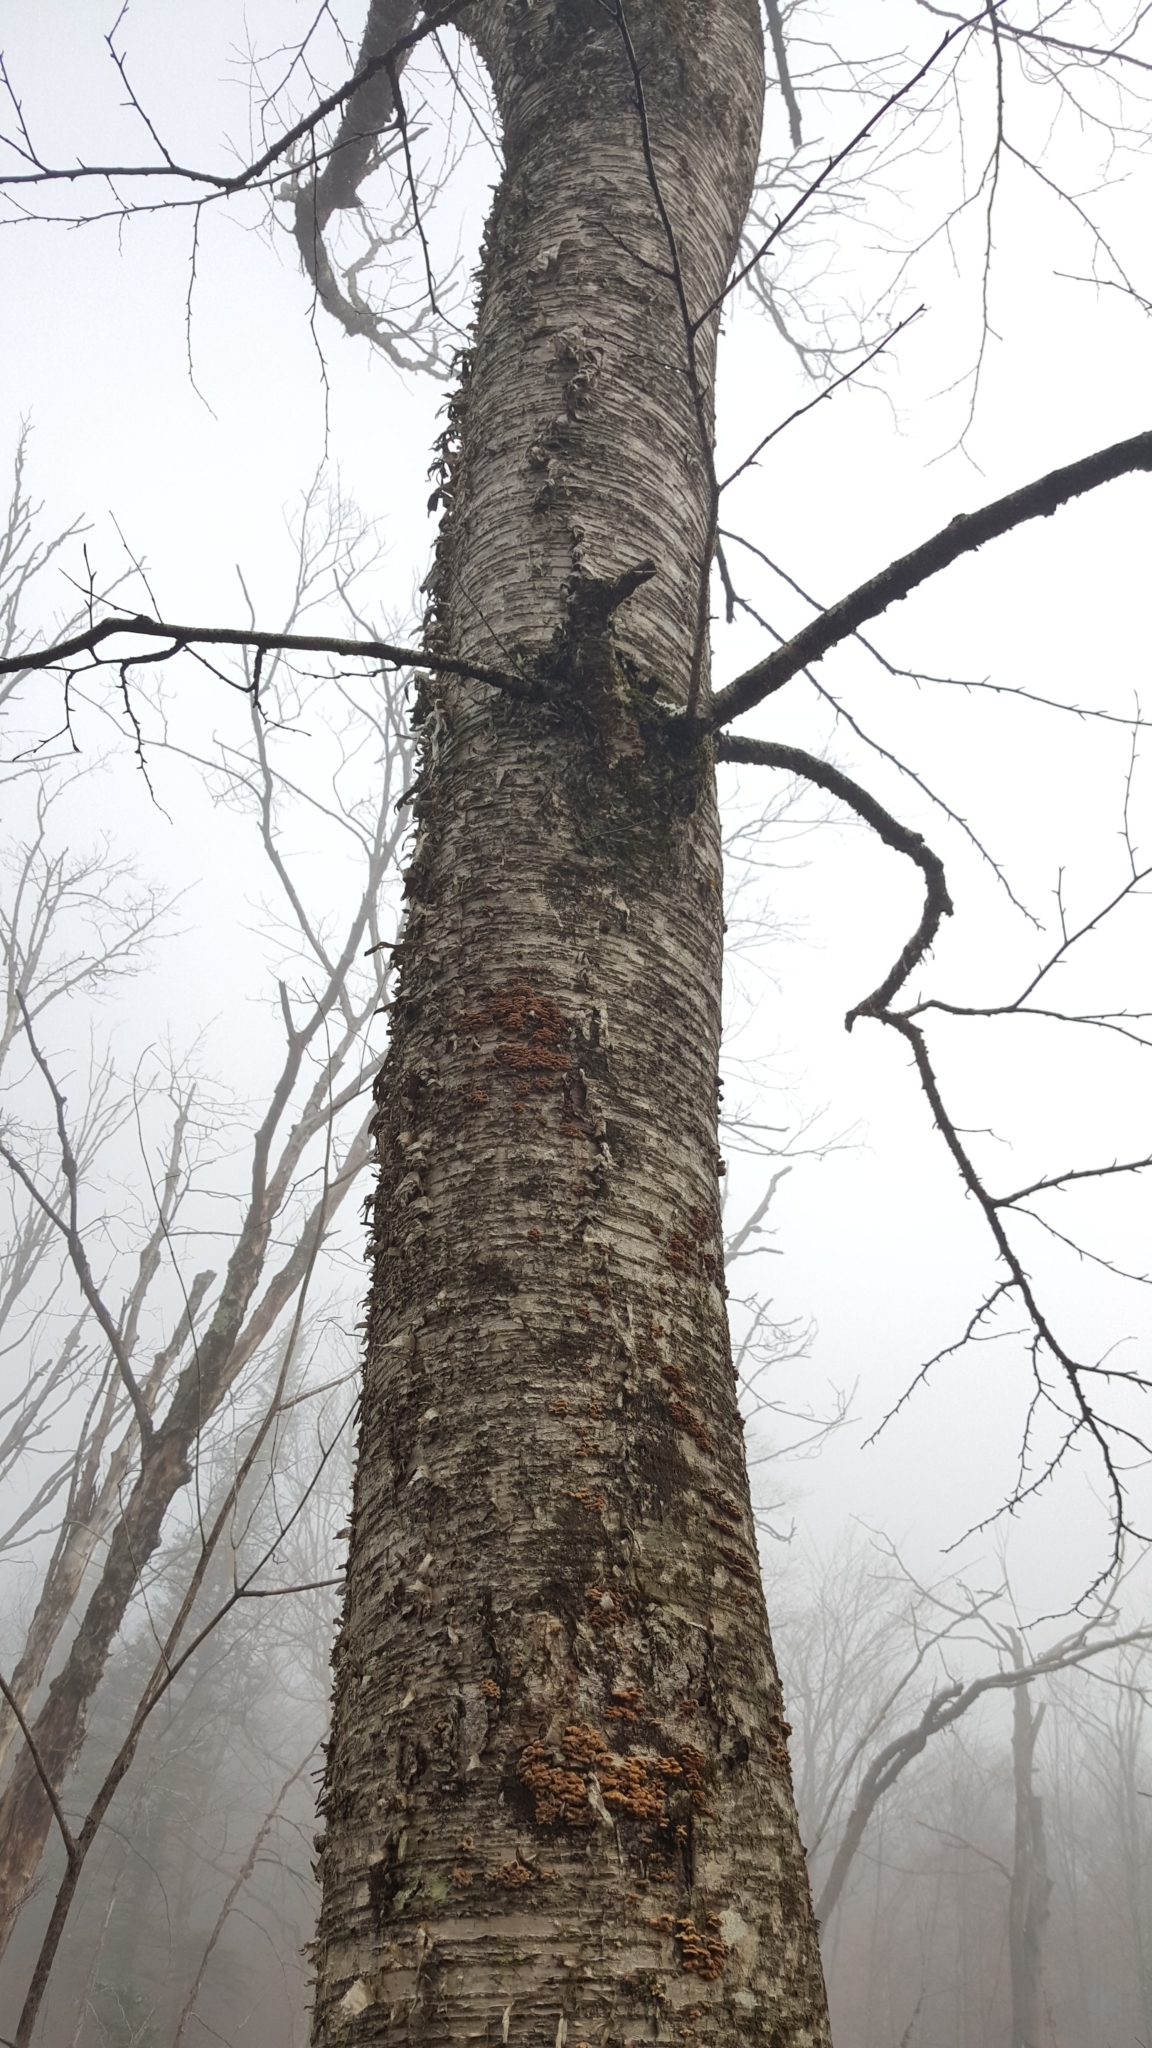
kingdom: Plantae
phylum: Tracheophyta
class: Magnoliopsida
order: Fagales
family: Betulaceae
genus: Betula
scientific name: Betula alleghaniensis
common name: Yellow birch
